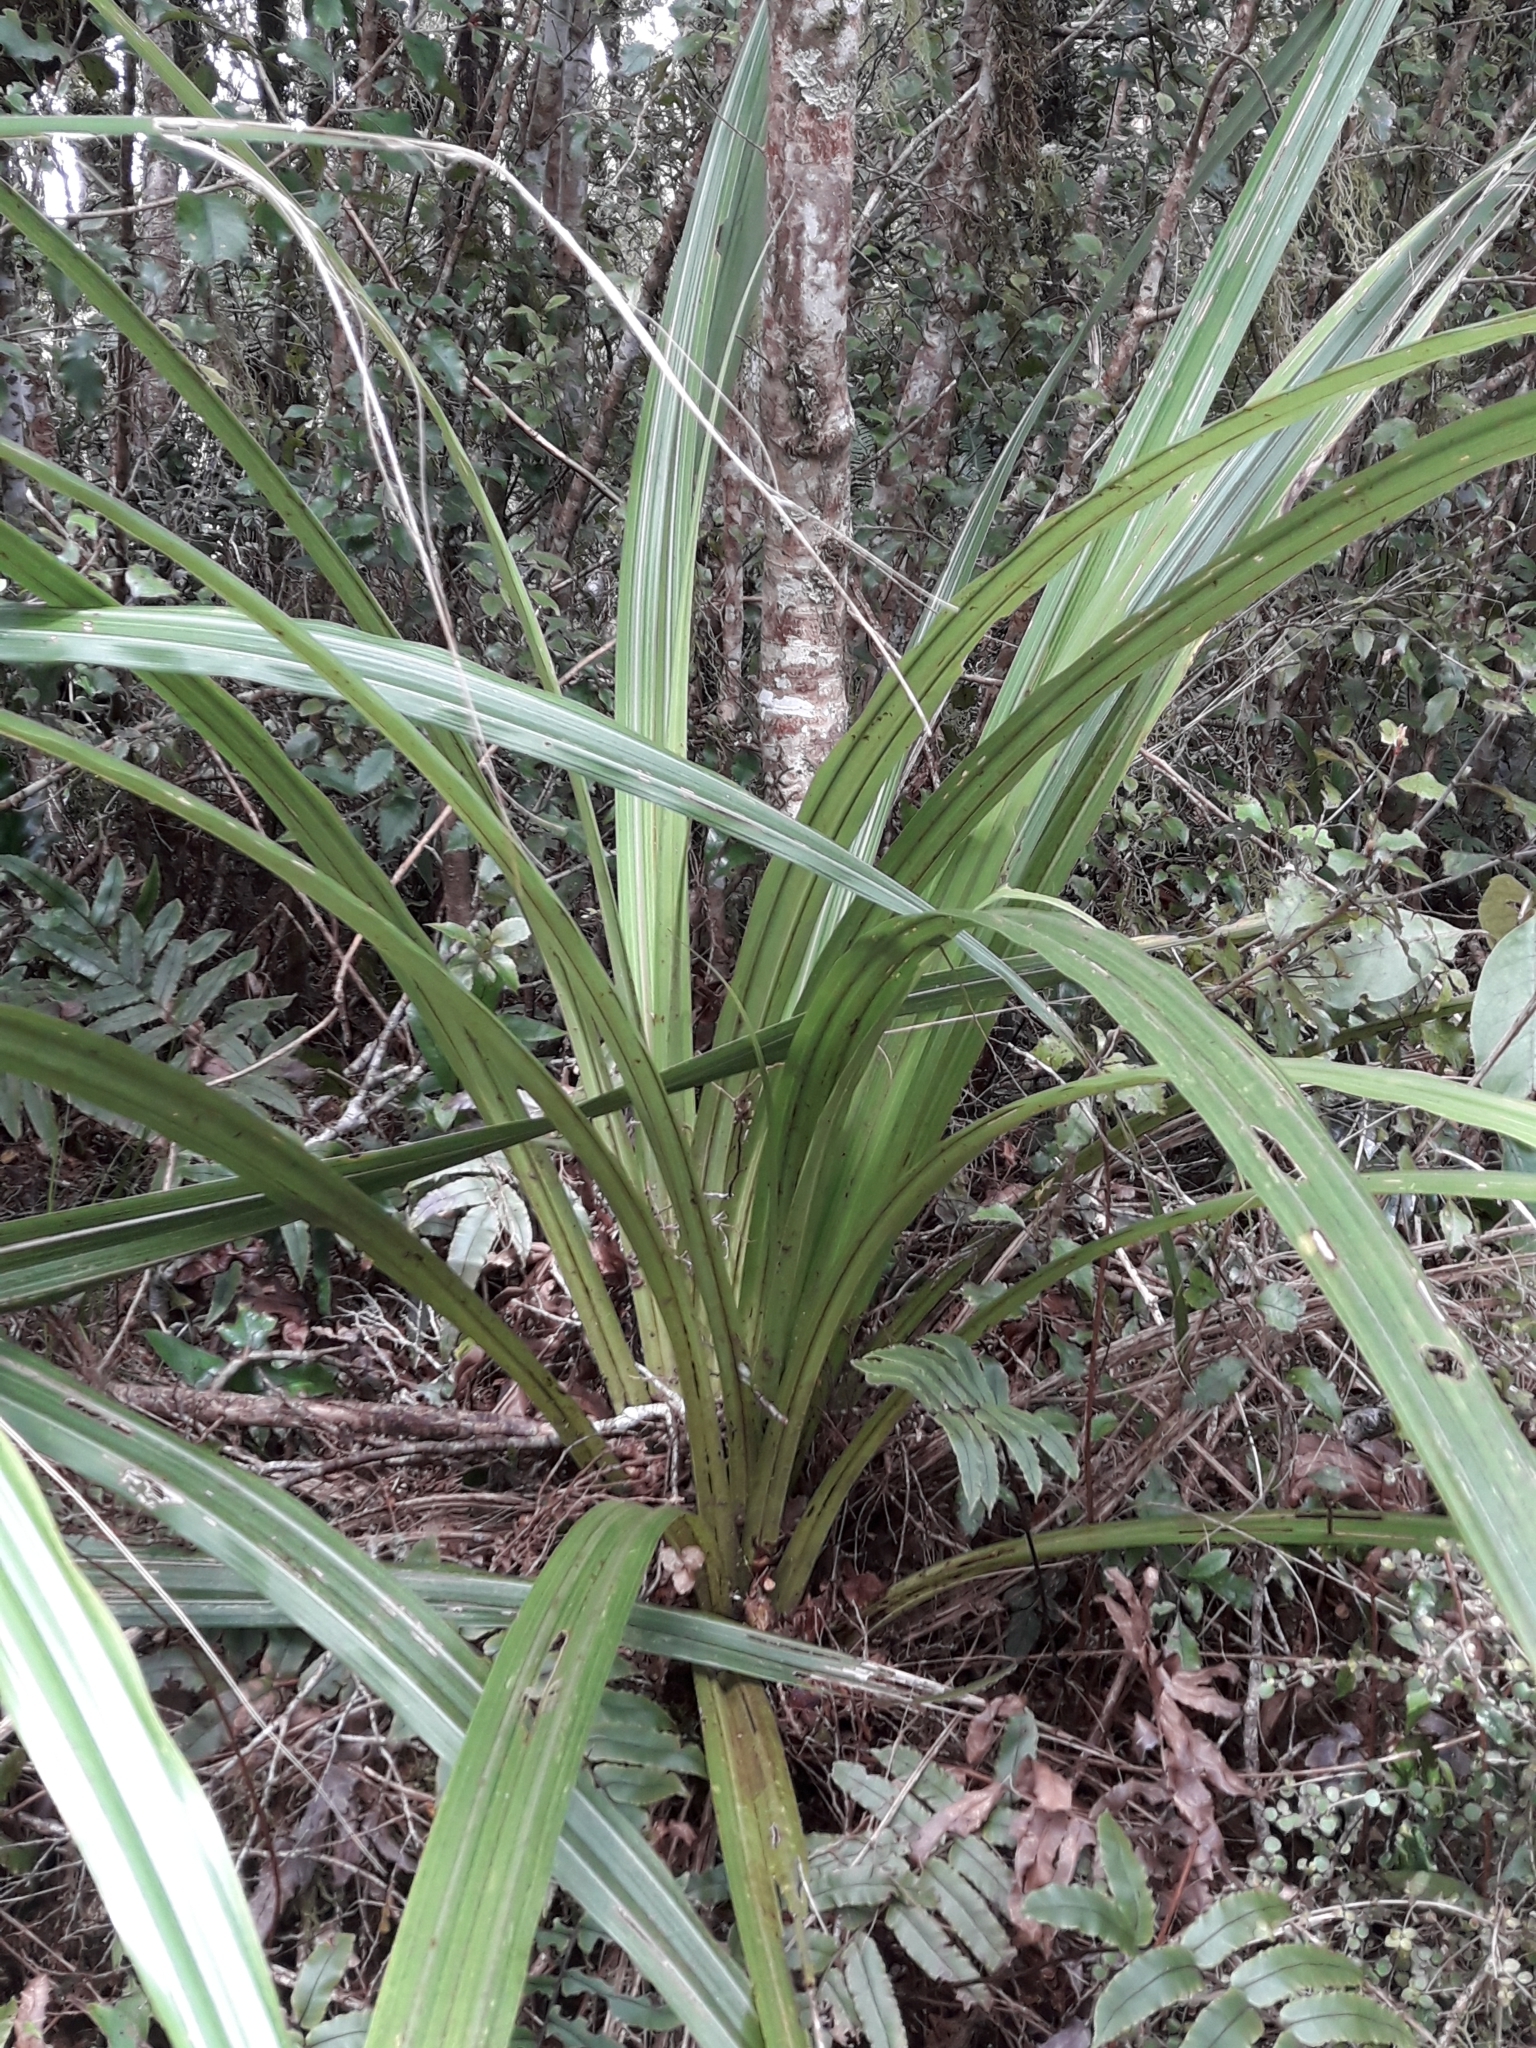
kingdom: Plantae
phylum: Tracheophyta
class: Liliopsida
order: Asparagales
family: Asteliaceae
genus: Astelia
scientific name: Astelia fragrans
